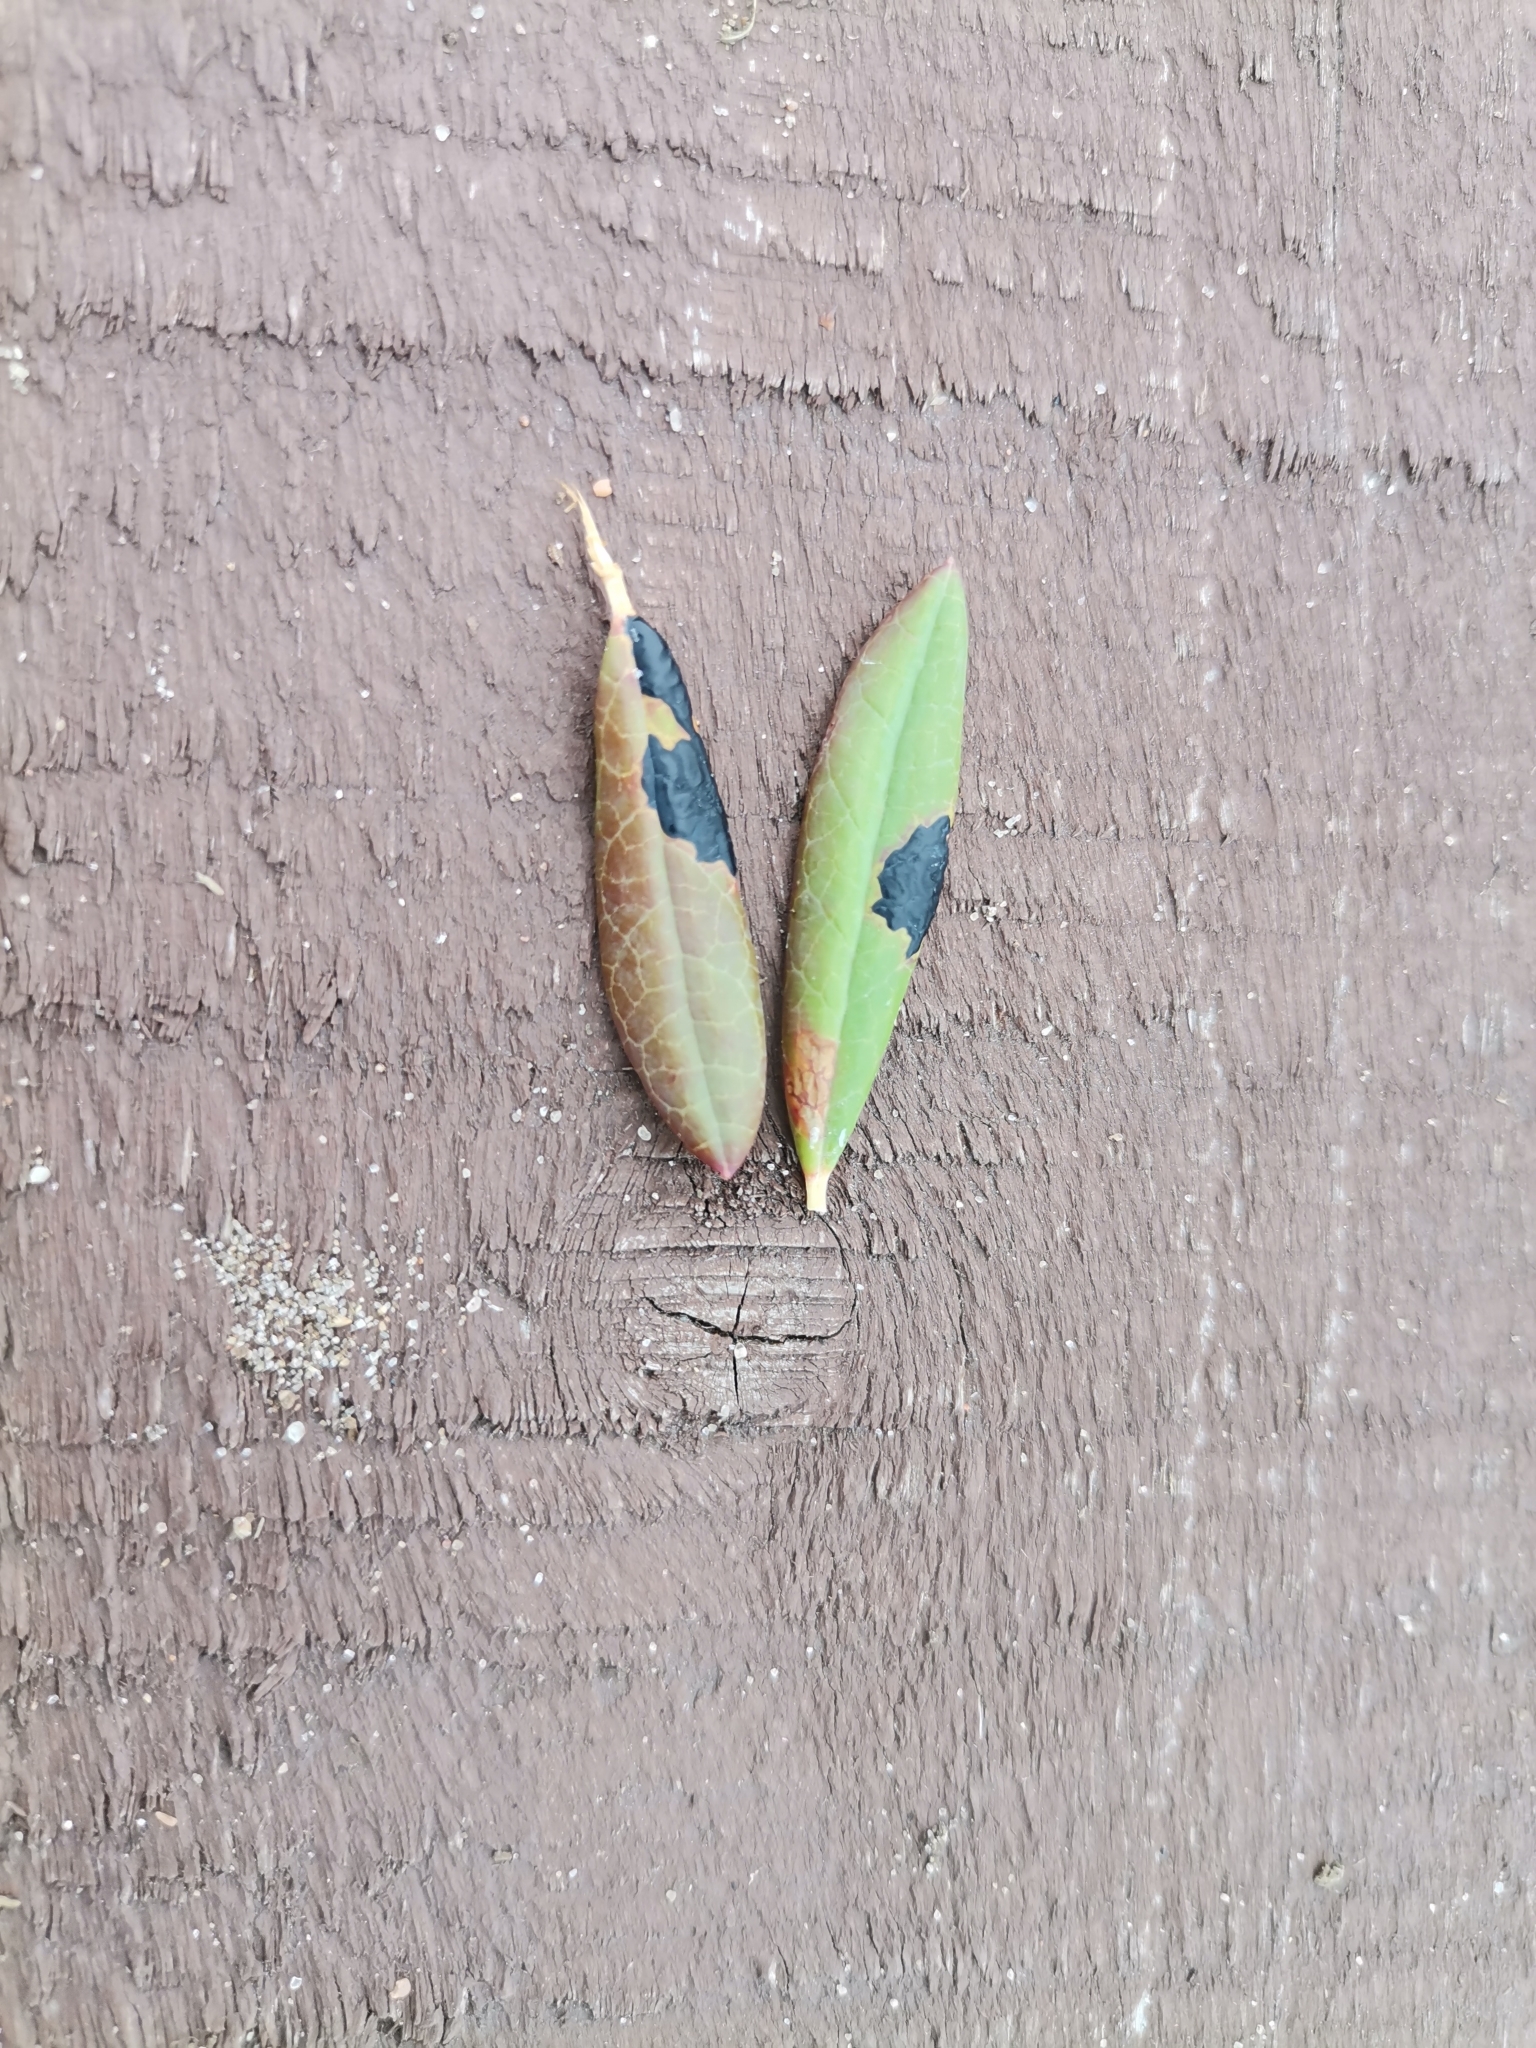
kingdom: Fungi
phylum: Ascomycota
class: Leotiomycetes
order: Rhytismatales
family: Rhytismataceae
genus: Rhytisma
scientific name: Rhytisma andromedae
